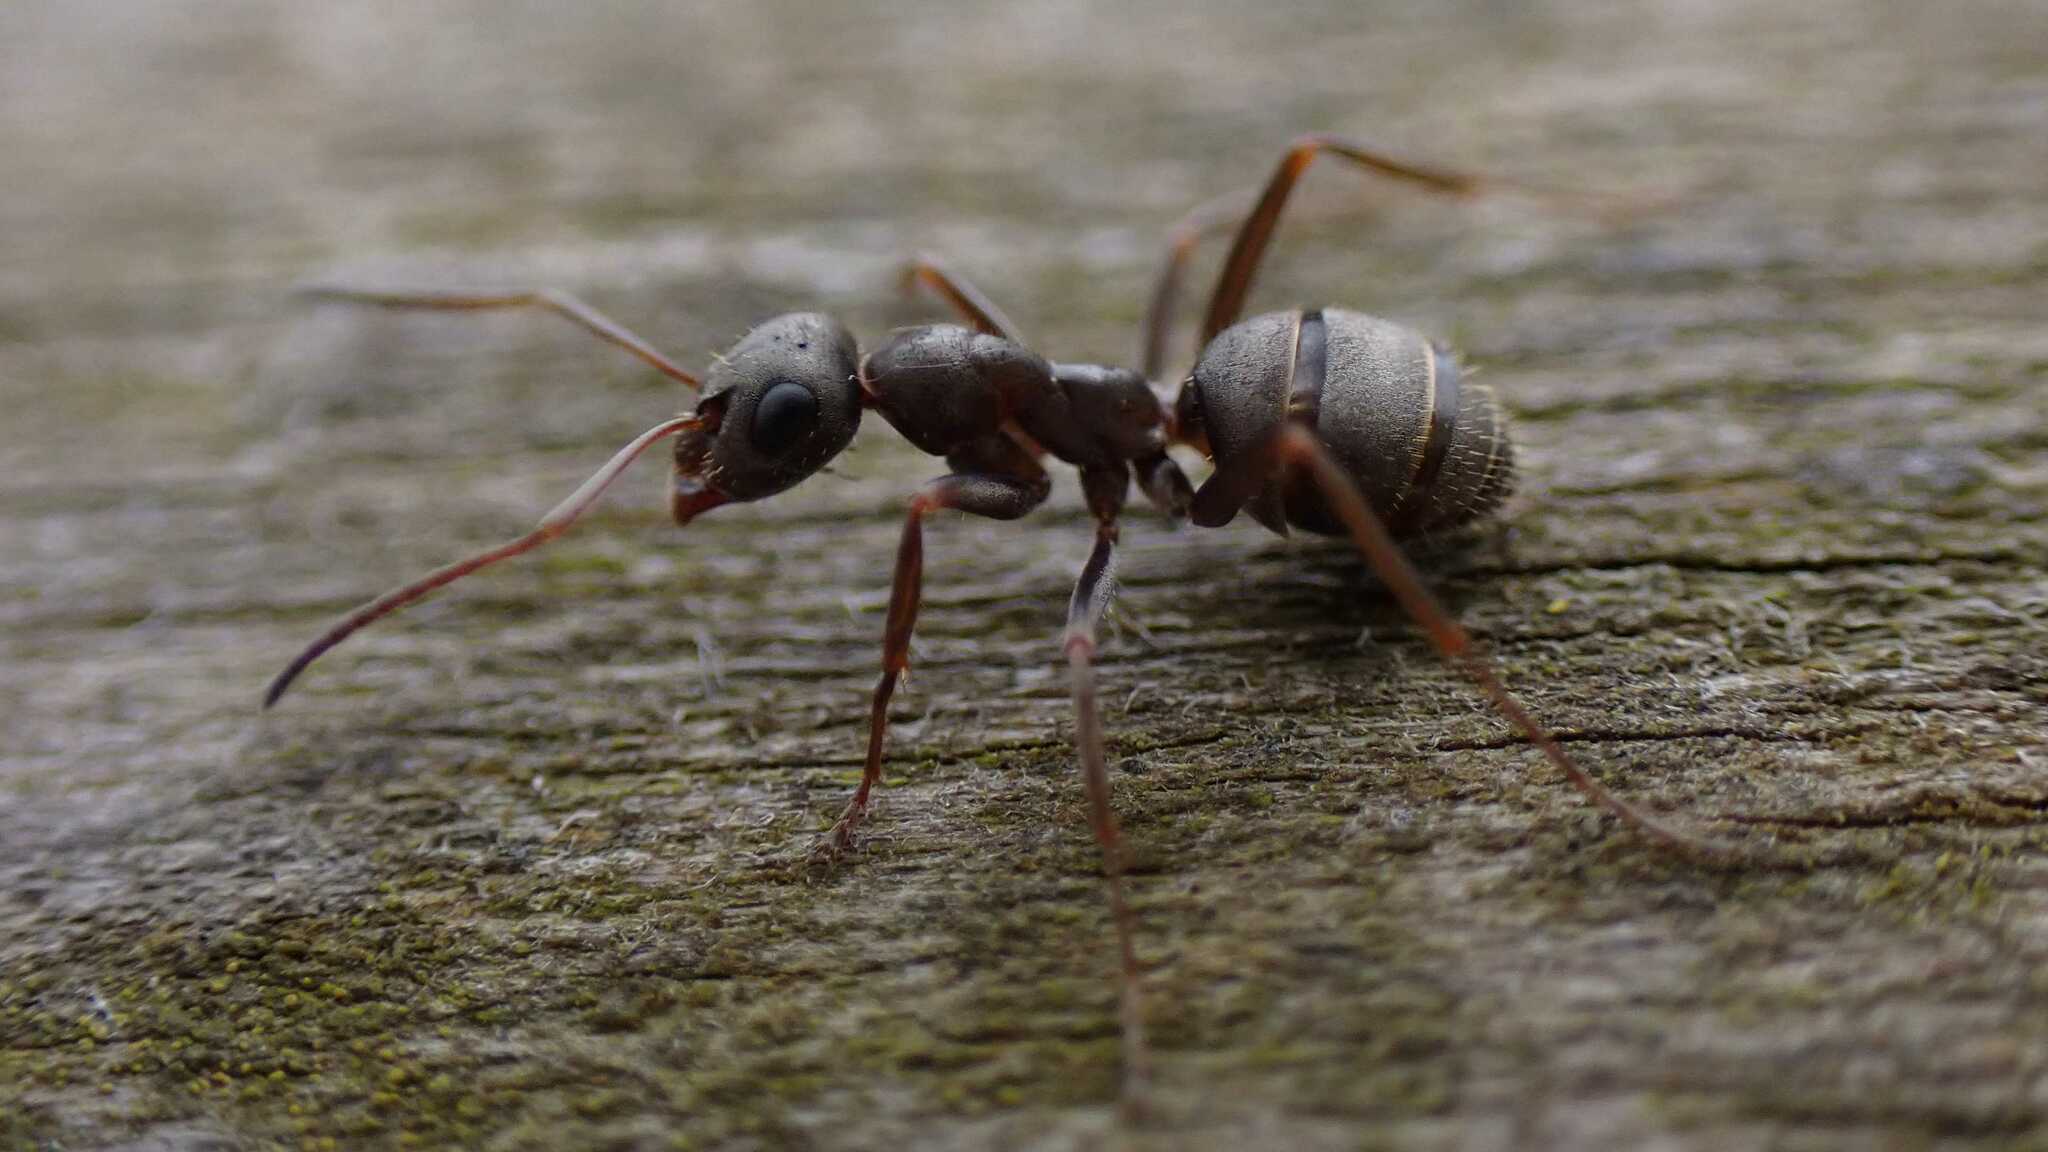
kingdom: Animalia
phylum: Arthropoda
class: Insecta
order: Hymenoptera
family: Formicidae
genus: Formica
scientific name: Formica cinerea
